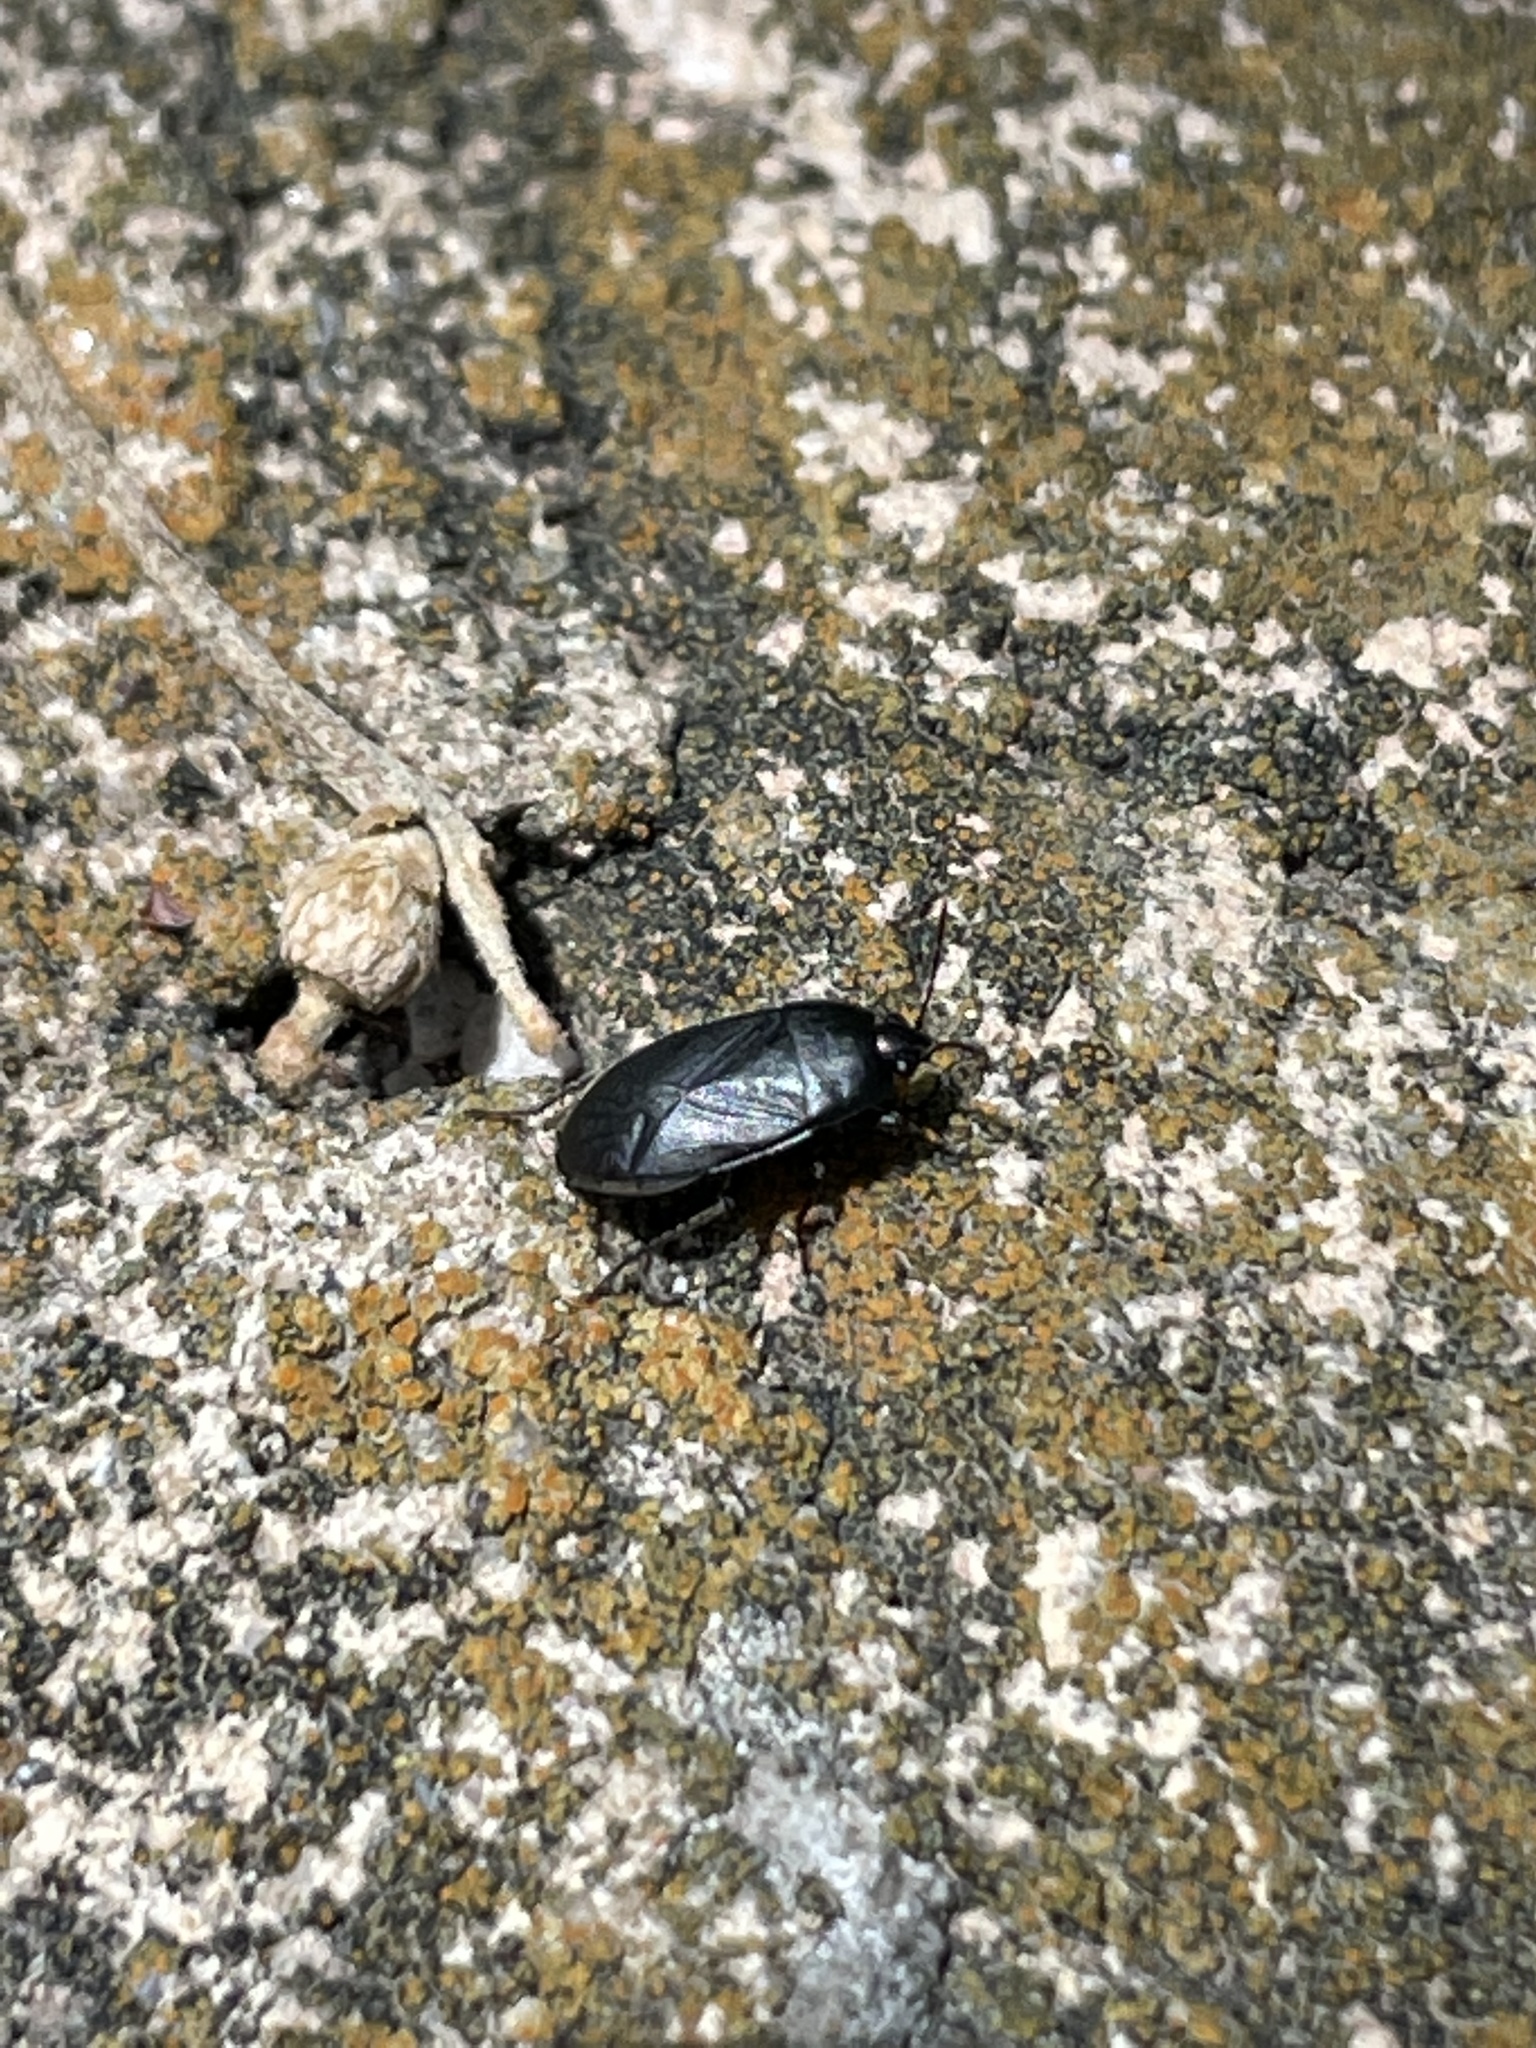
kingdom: Animalia
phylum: Arthropoda
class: Insecta
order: Hemiptera
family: Rhyparochromidae
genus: Atrazonotus
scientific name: Atrazonotus umbrosus
